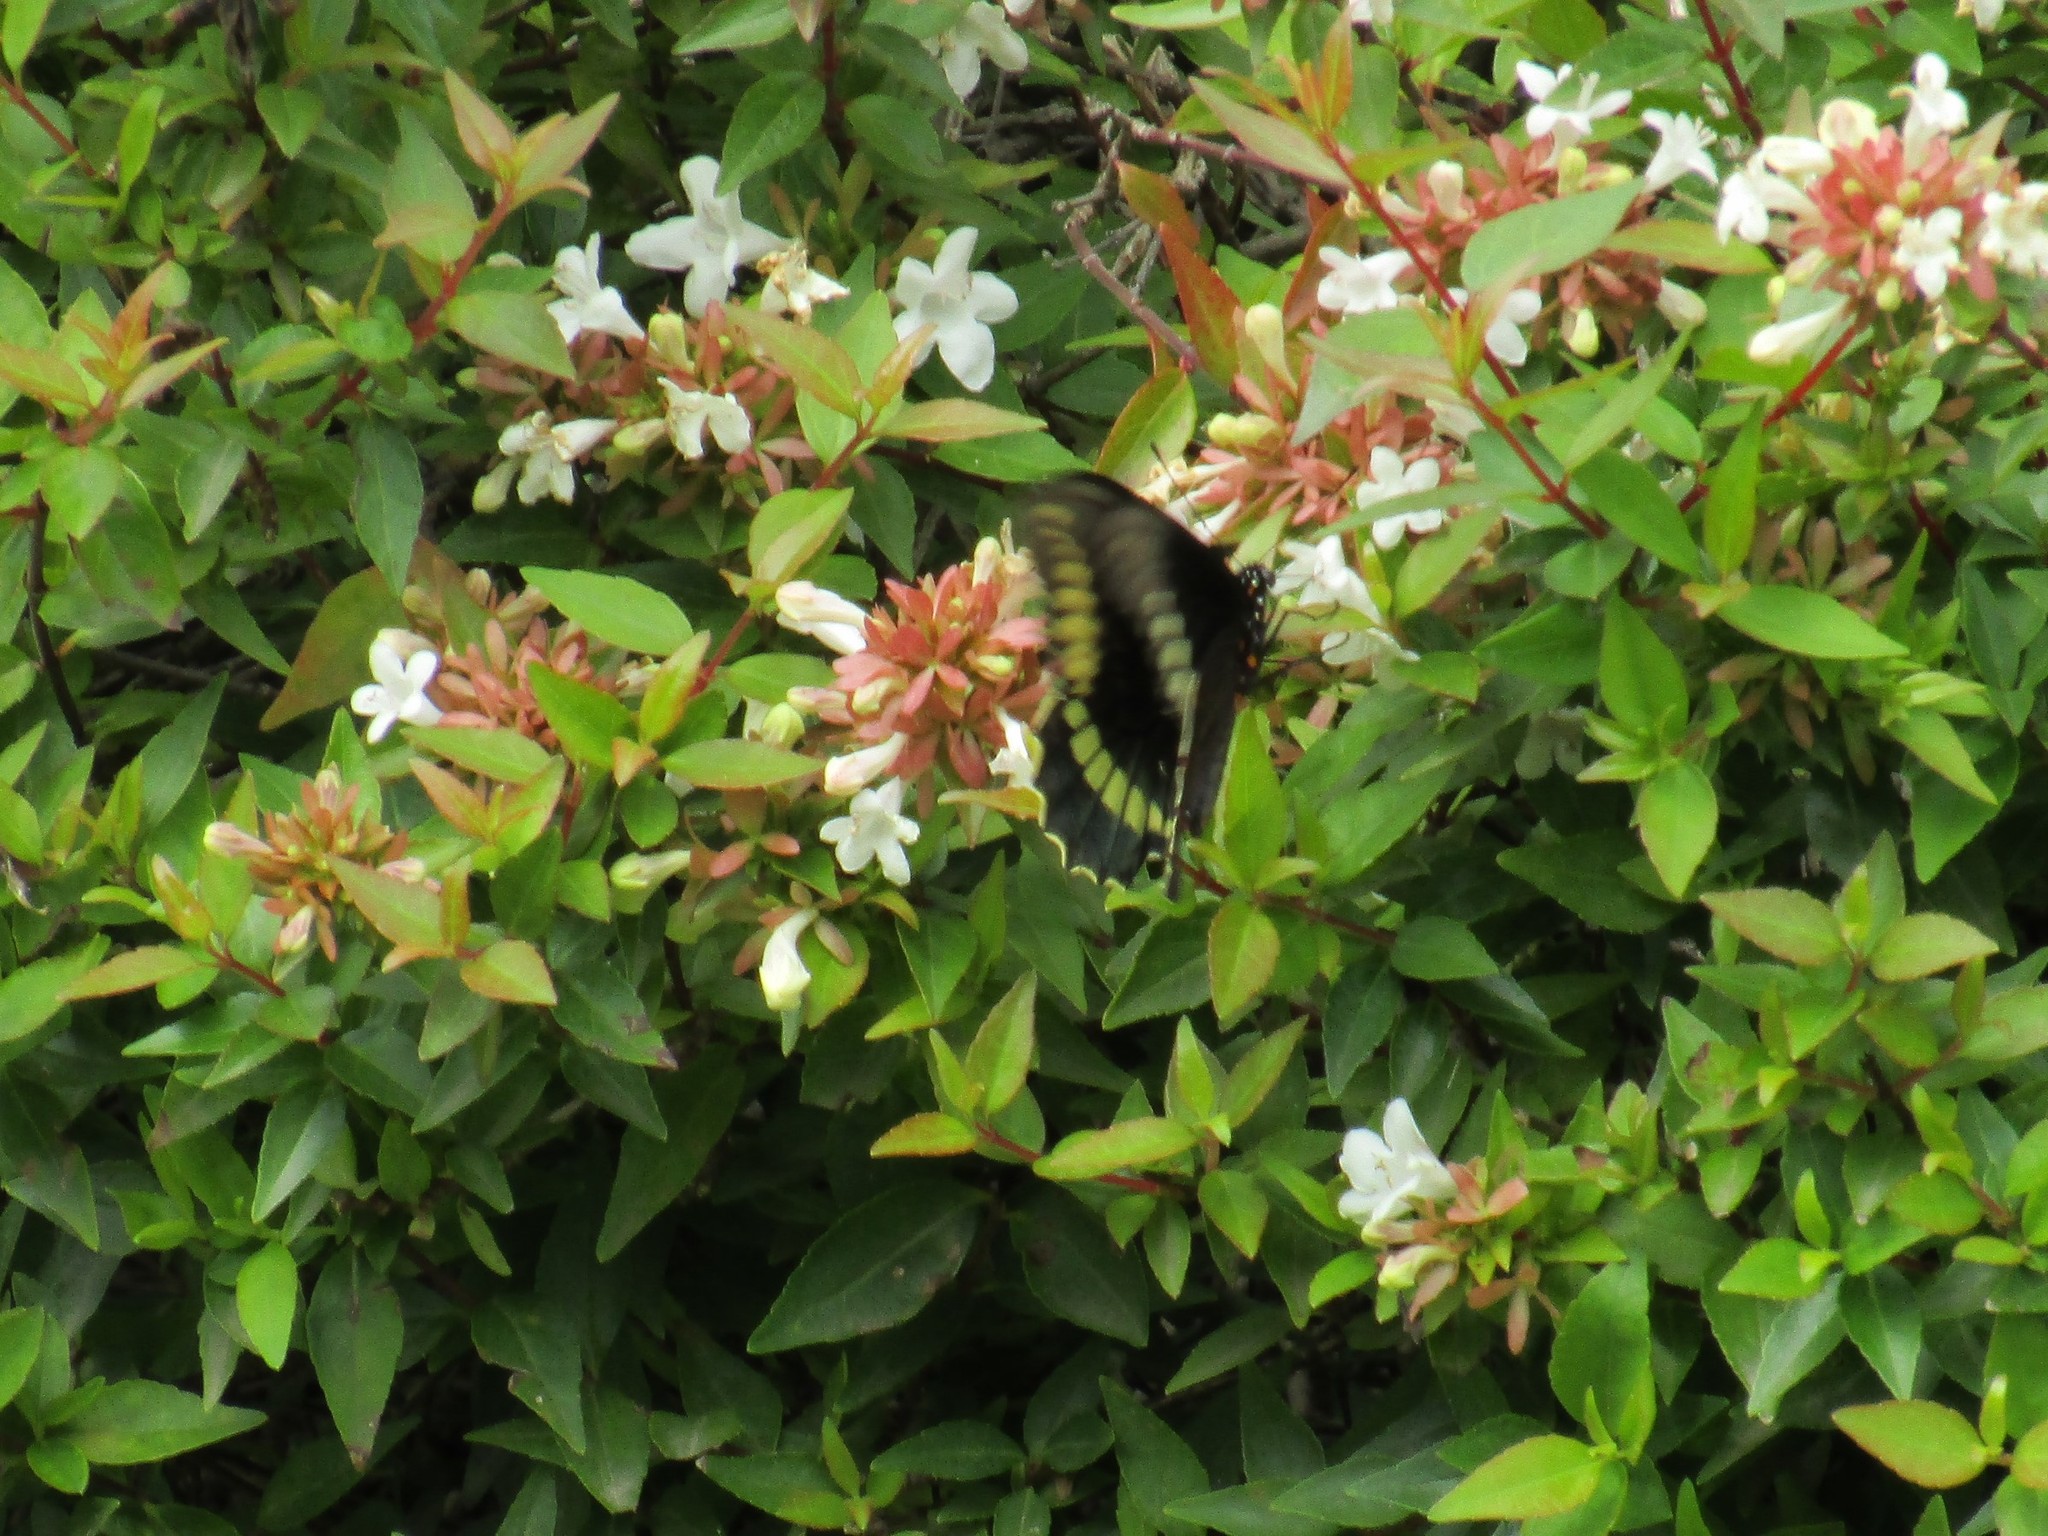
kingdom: Animalia
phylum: Arthropoda
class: Insecta
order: Lepidoptera
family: Papilionidae
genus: Battus
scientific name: Battus polydamas
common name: Polydamas swallowtail
